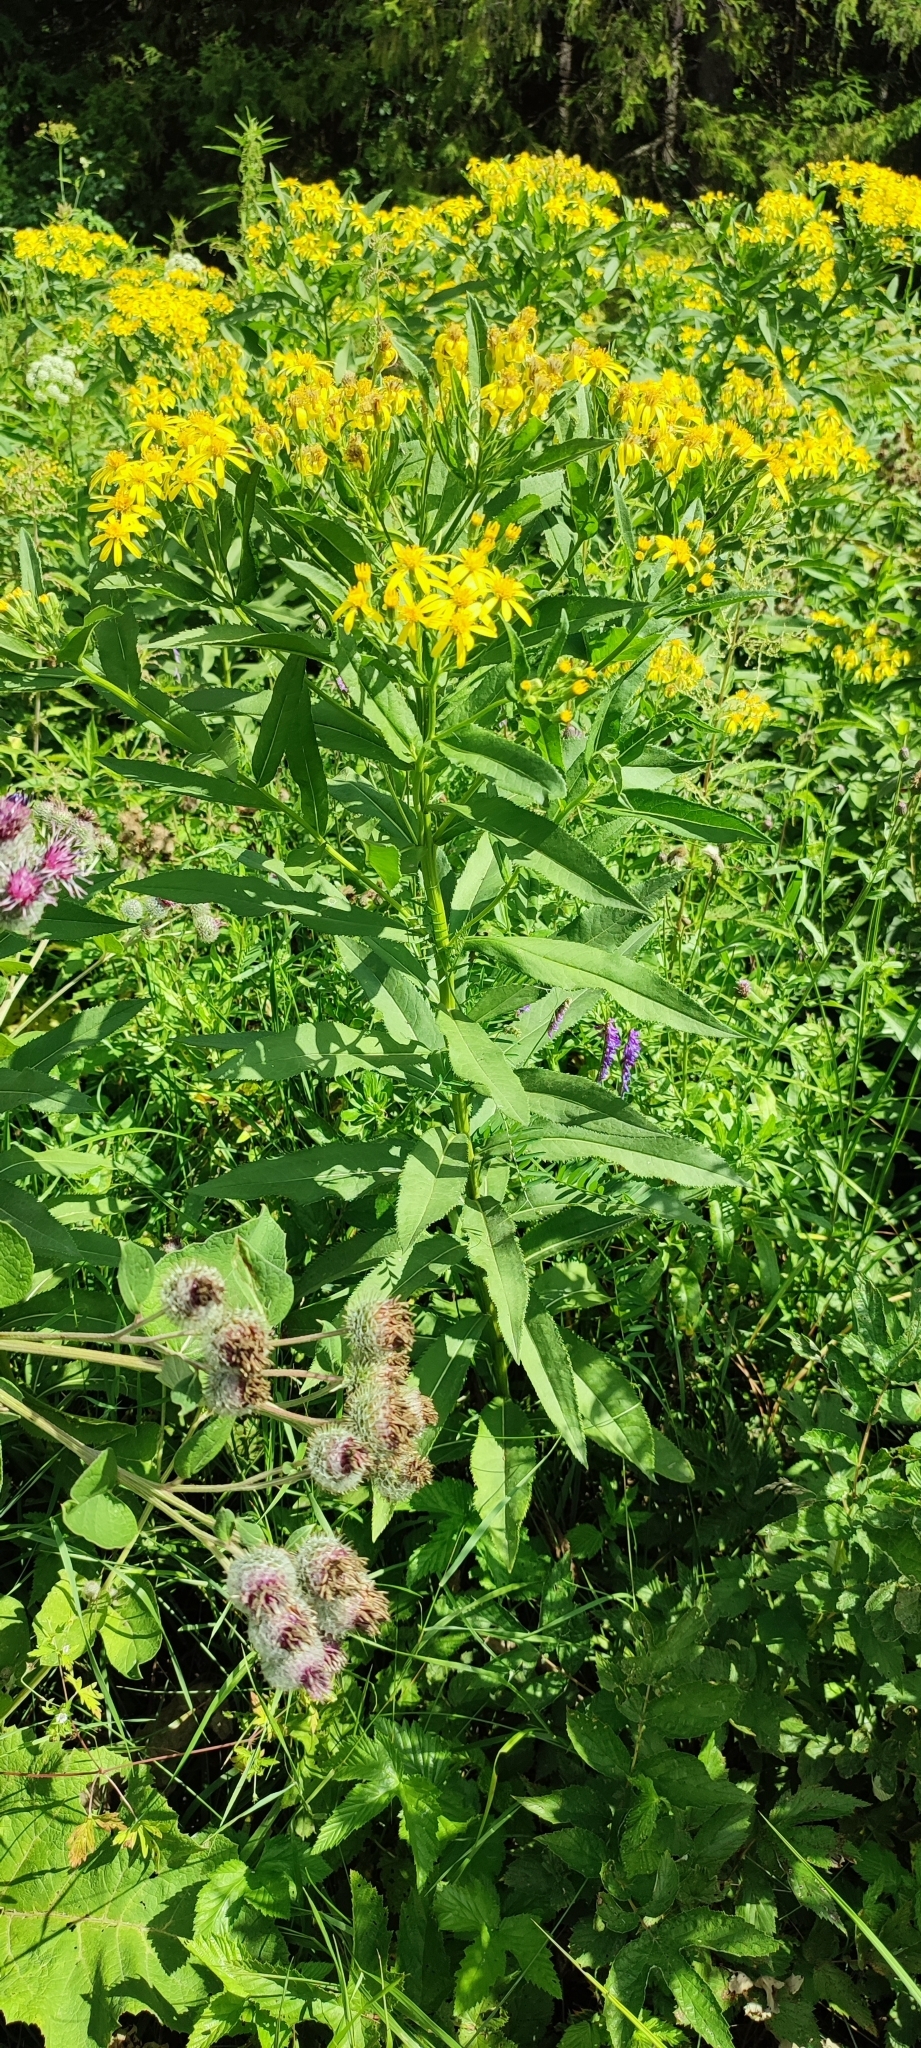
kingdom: Plantae
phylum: Tracheophyta
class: Magnoliopsida
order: Asterales
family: Asteraceae
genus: Senecio
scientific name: Senecio sarracenicus
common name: Broad-leaved ragwort
